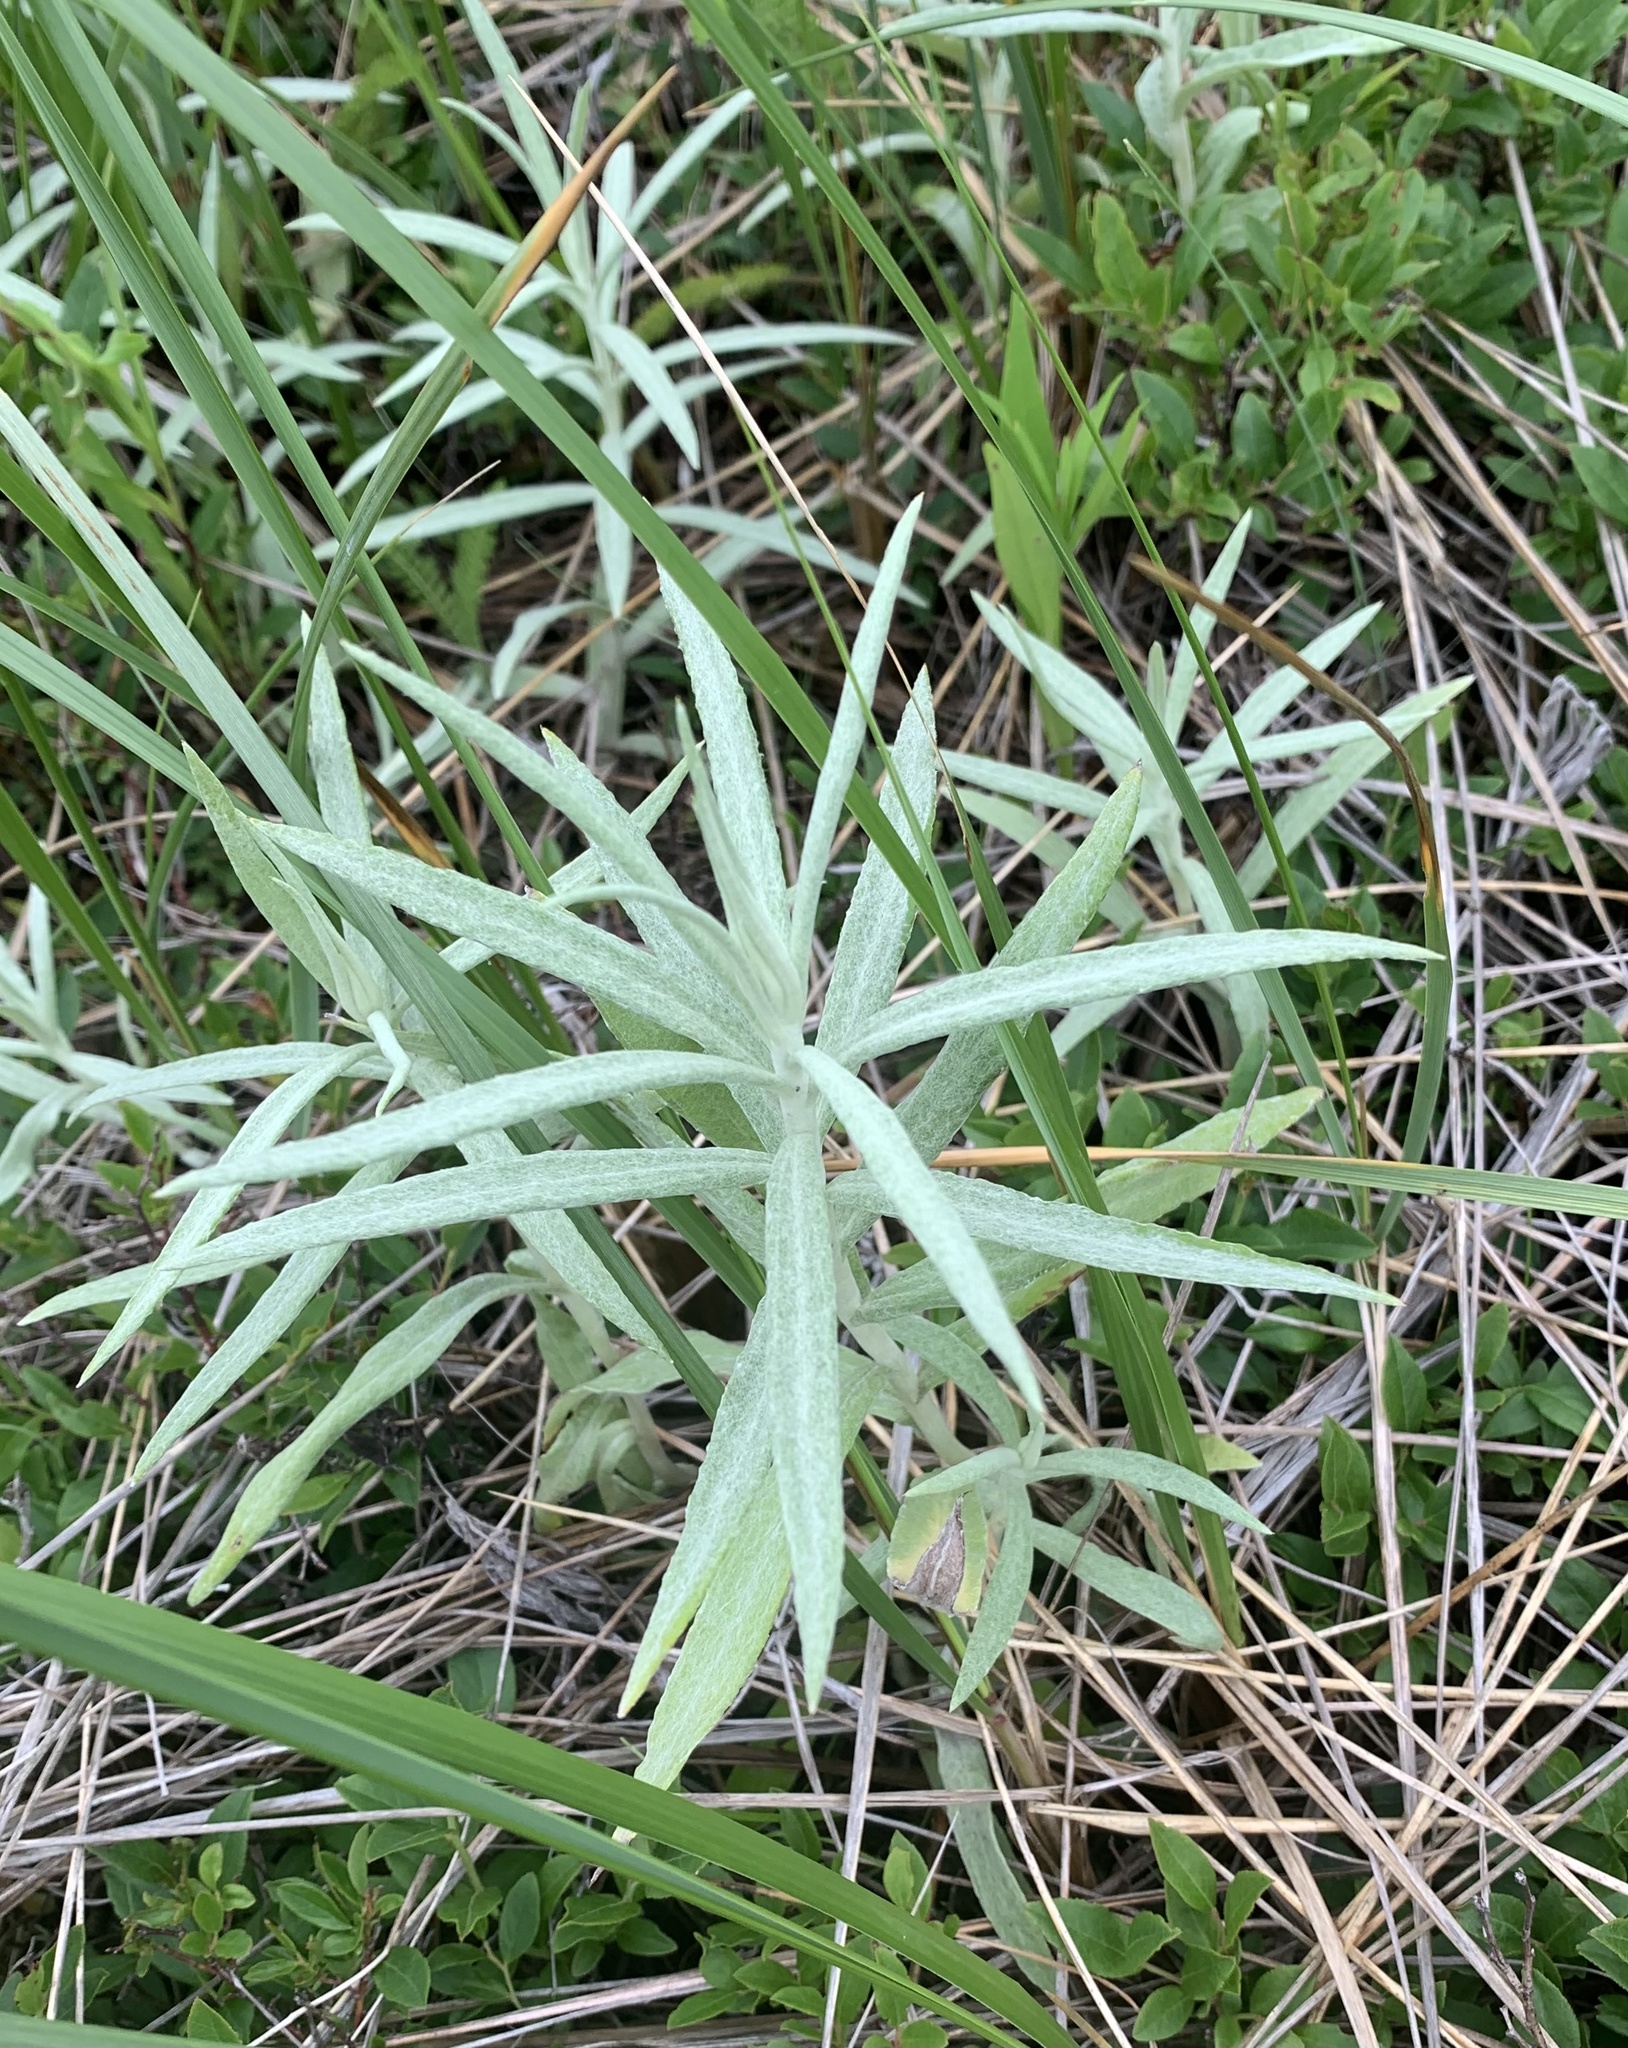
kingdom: Plantae
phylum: Tracheophyta
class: Magnoliopsida
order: Asterales
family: Asteraceae
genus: Anaphalis
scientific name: Anaphalis margaritacea
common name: Pearly everlasting
